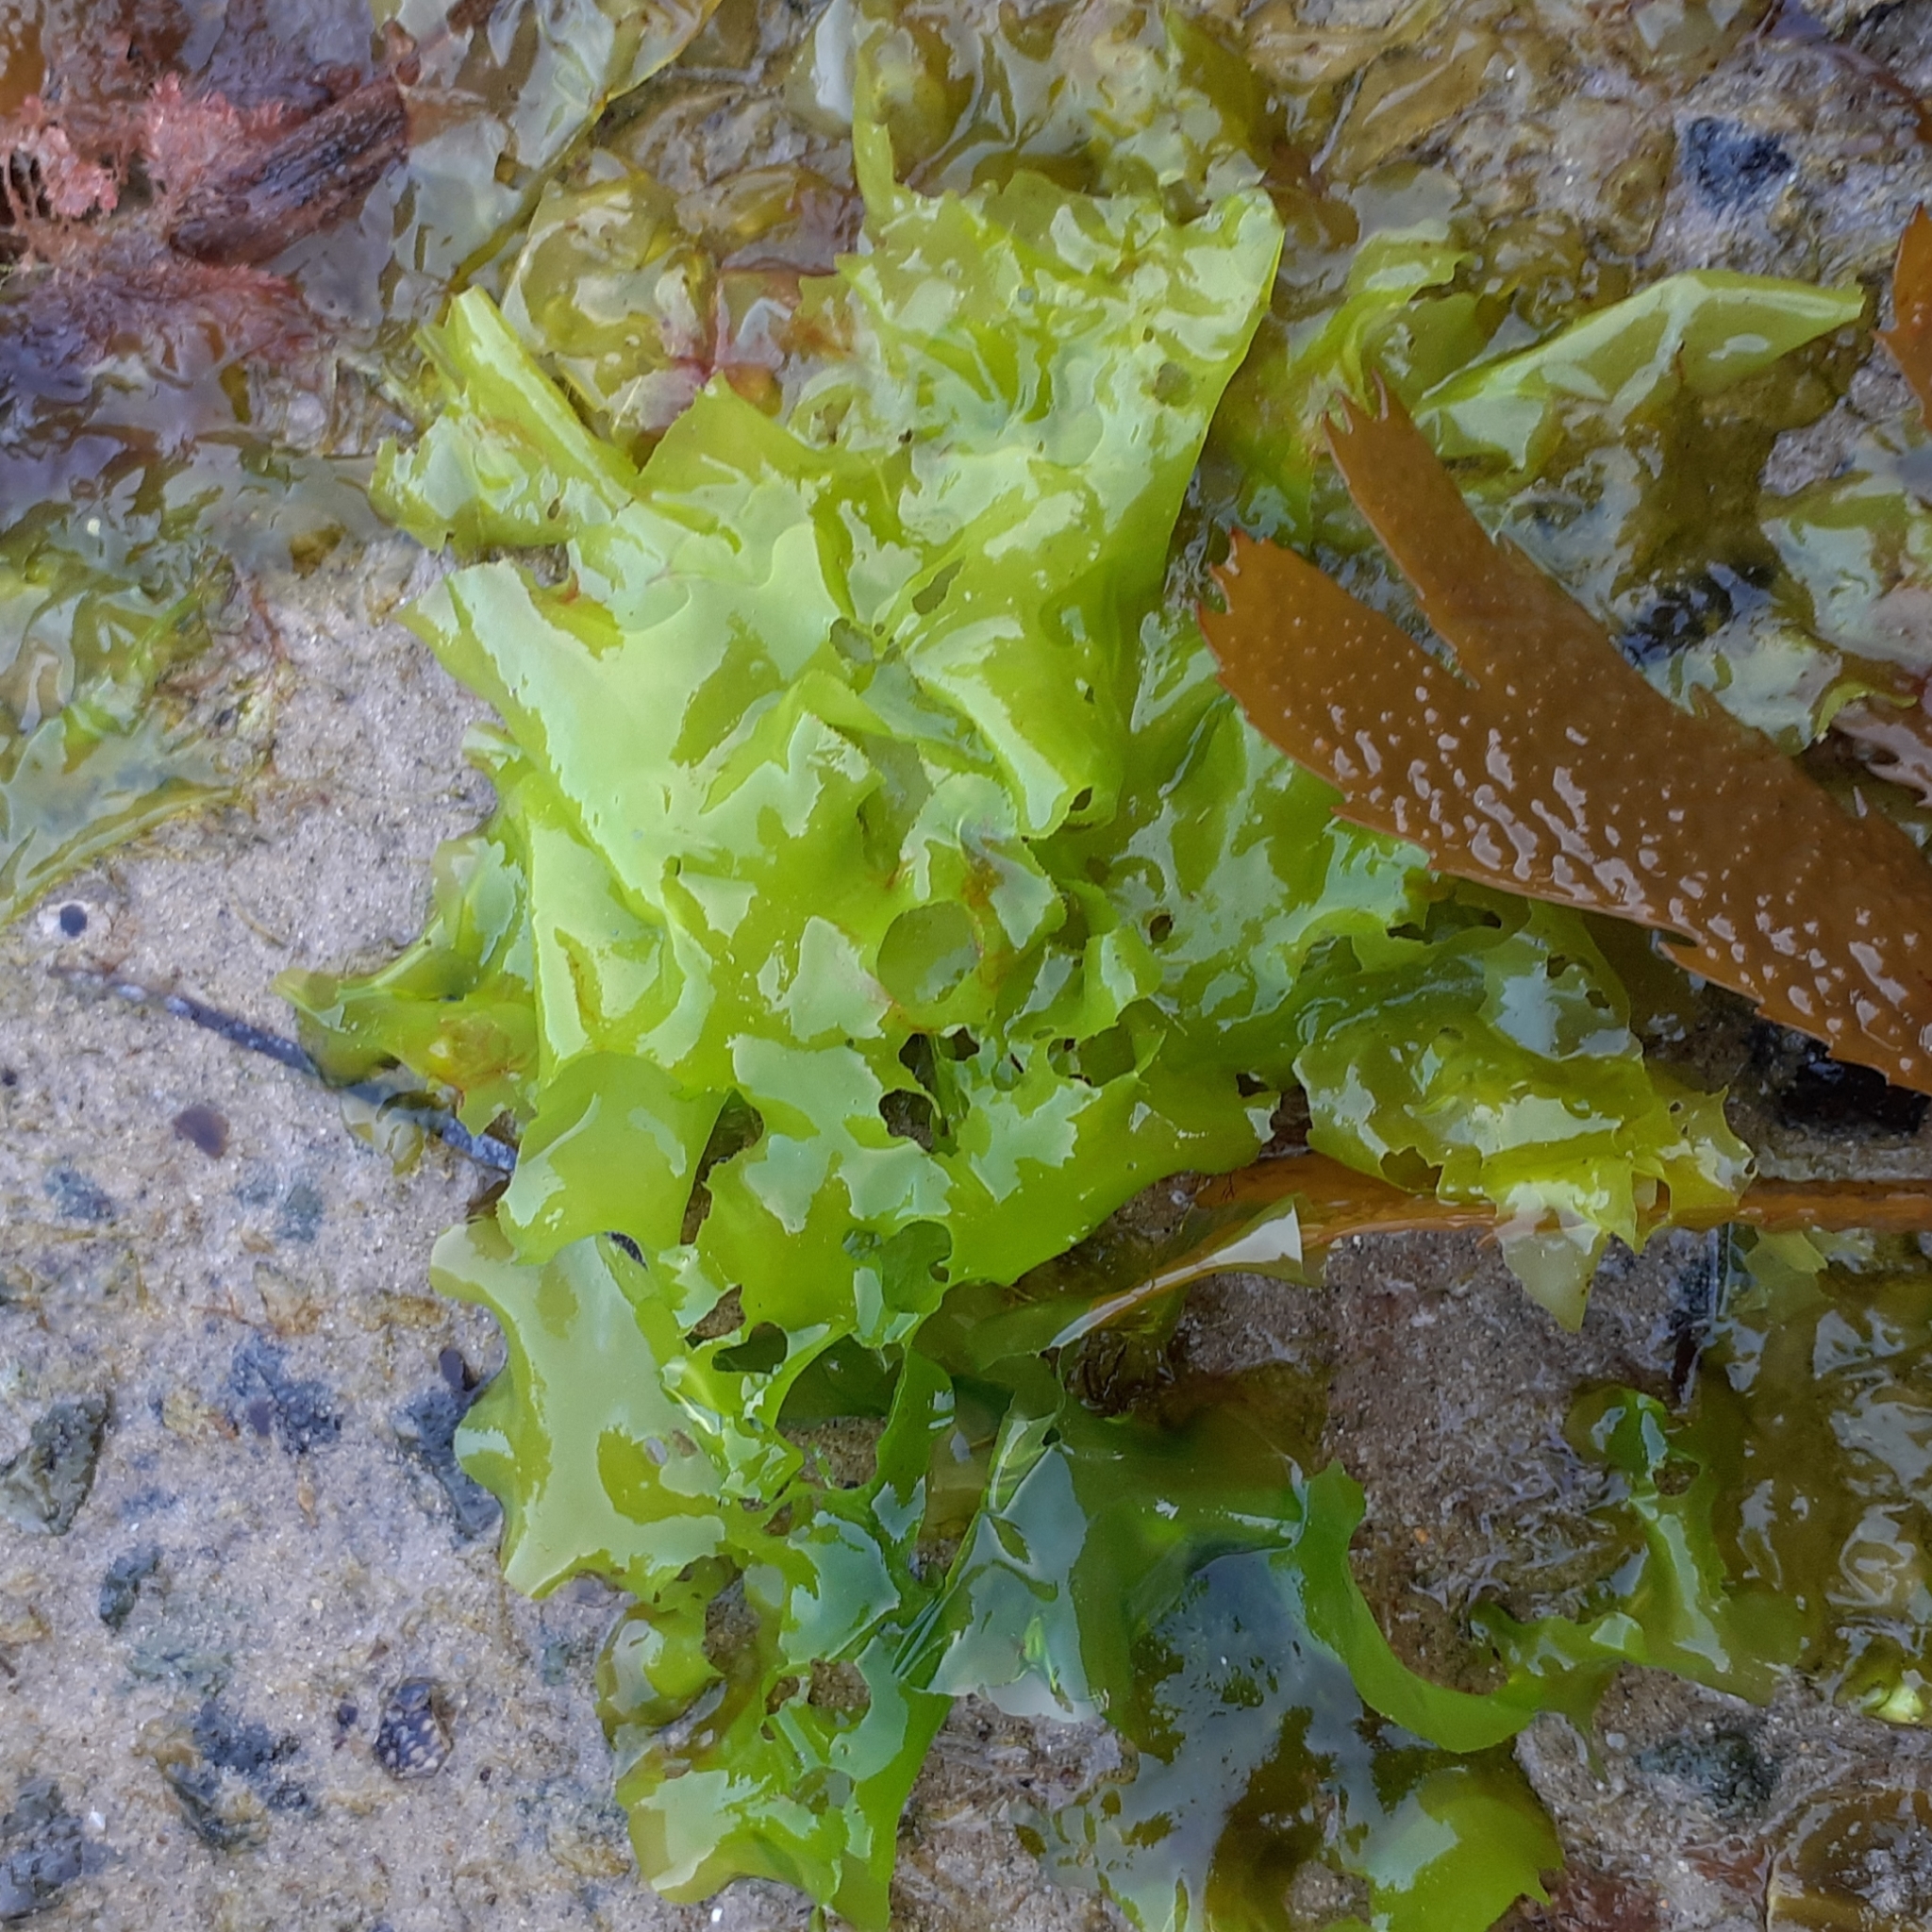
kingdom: Plantae
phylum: Chlorophyta
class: Ulvophyceae
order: Ulvales
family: Ulvaceae
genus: Ulva
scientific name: Ulva lactuca
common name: Sea lettuce
